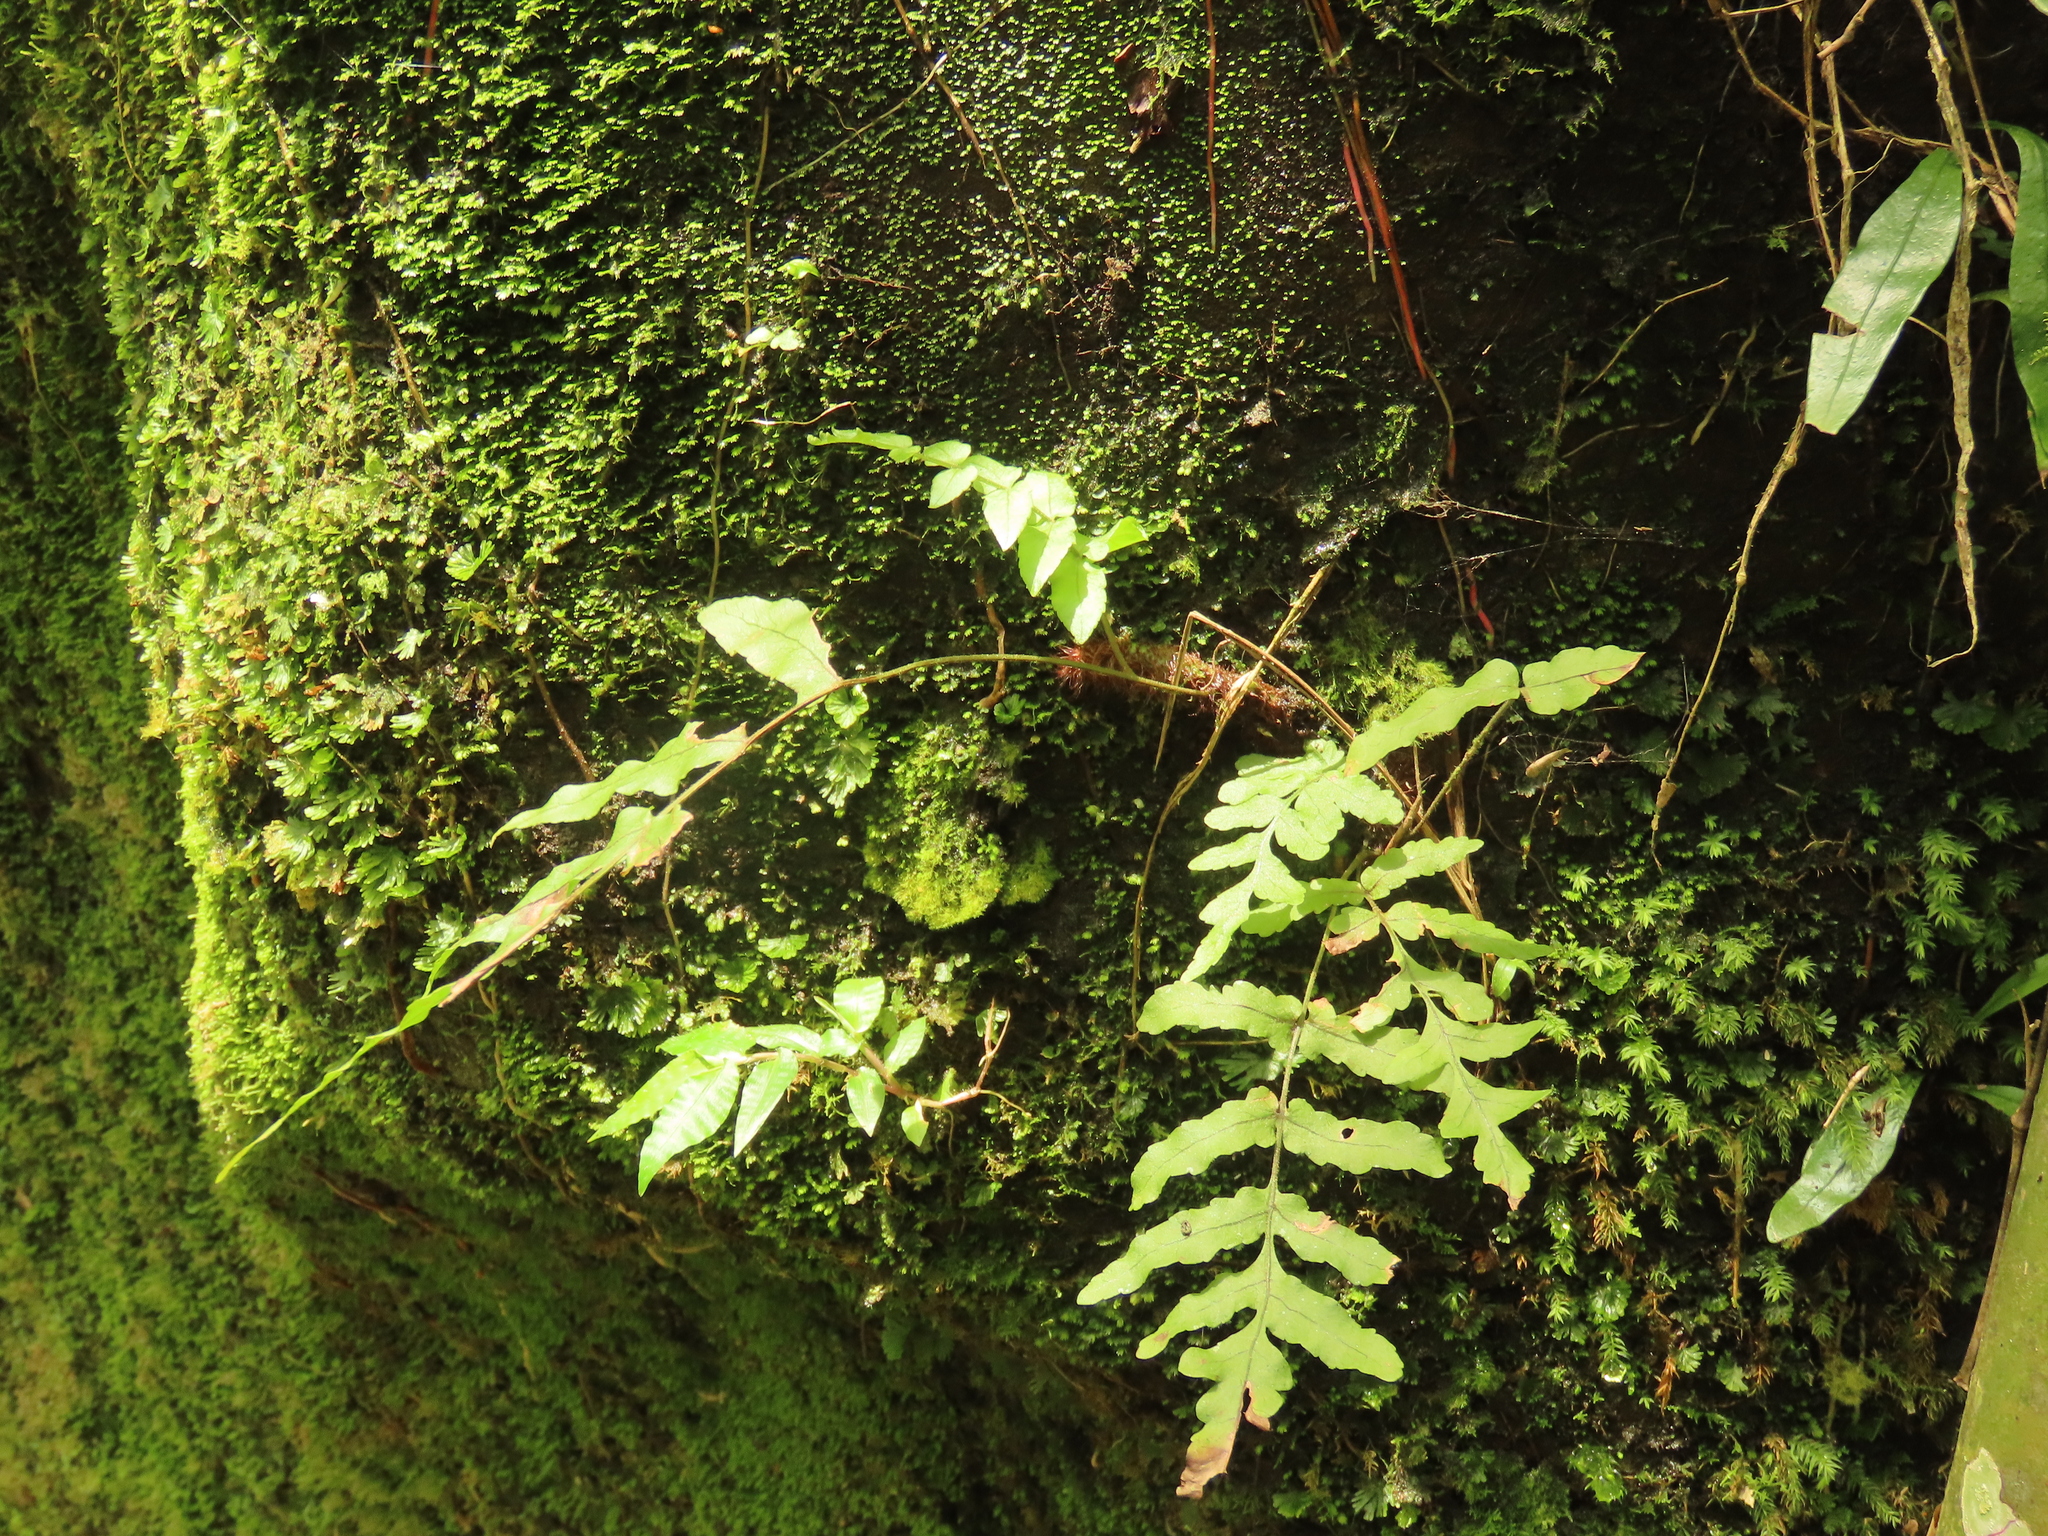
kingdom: Plantae
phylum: Tracheophyta
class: Polypodiopsida
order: Polypodiales
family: Polypodiaceae
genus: Goniophlebium
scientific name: Goniophlebium mengtzeense
